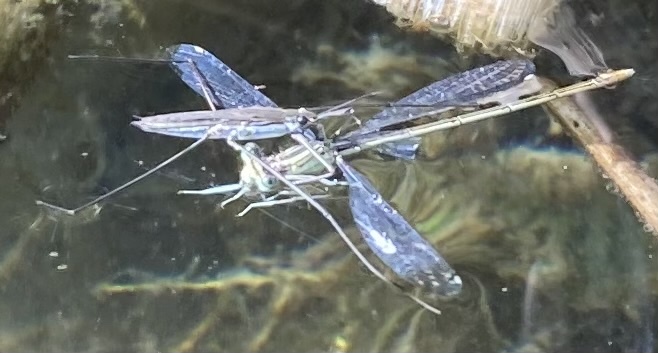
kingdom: Animalia
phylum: Arthropoda
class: Insecta
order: Odonata
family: Platycnemididae
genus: Platycnemis
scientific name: Platycnemis pennipes
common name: White-legged damselfly
